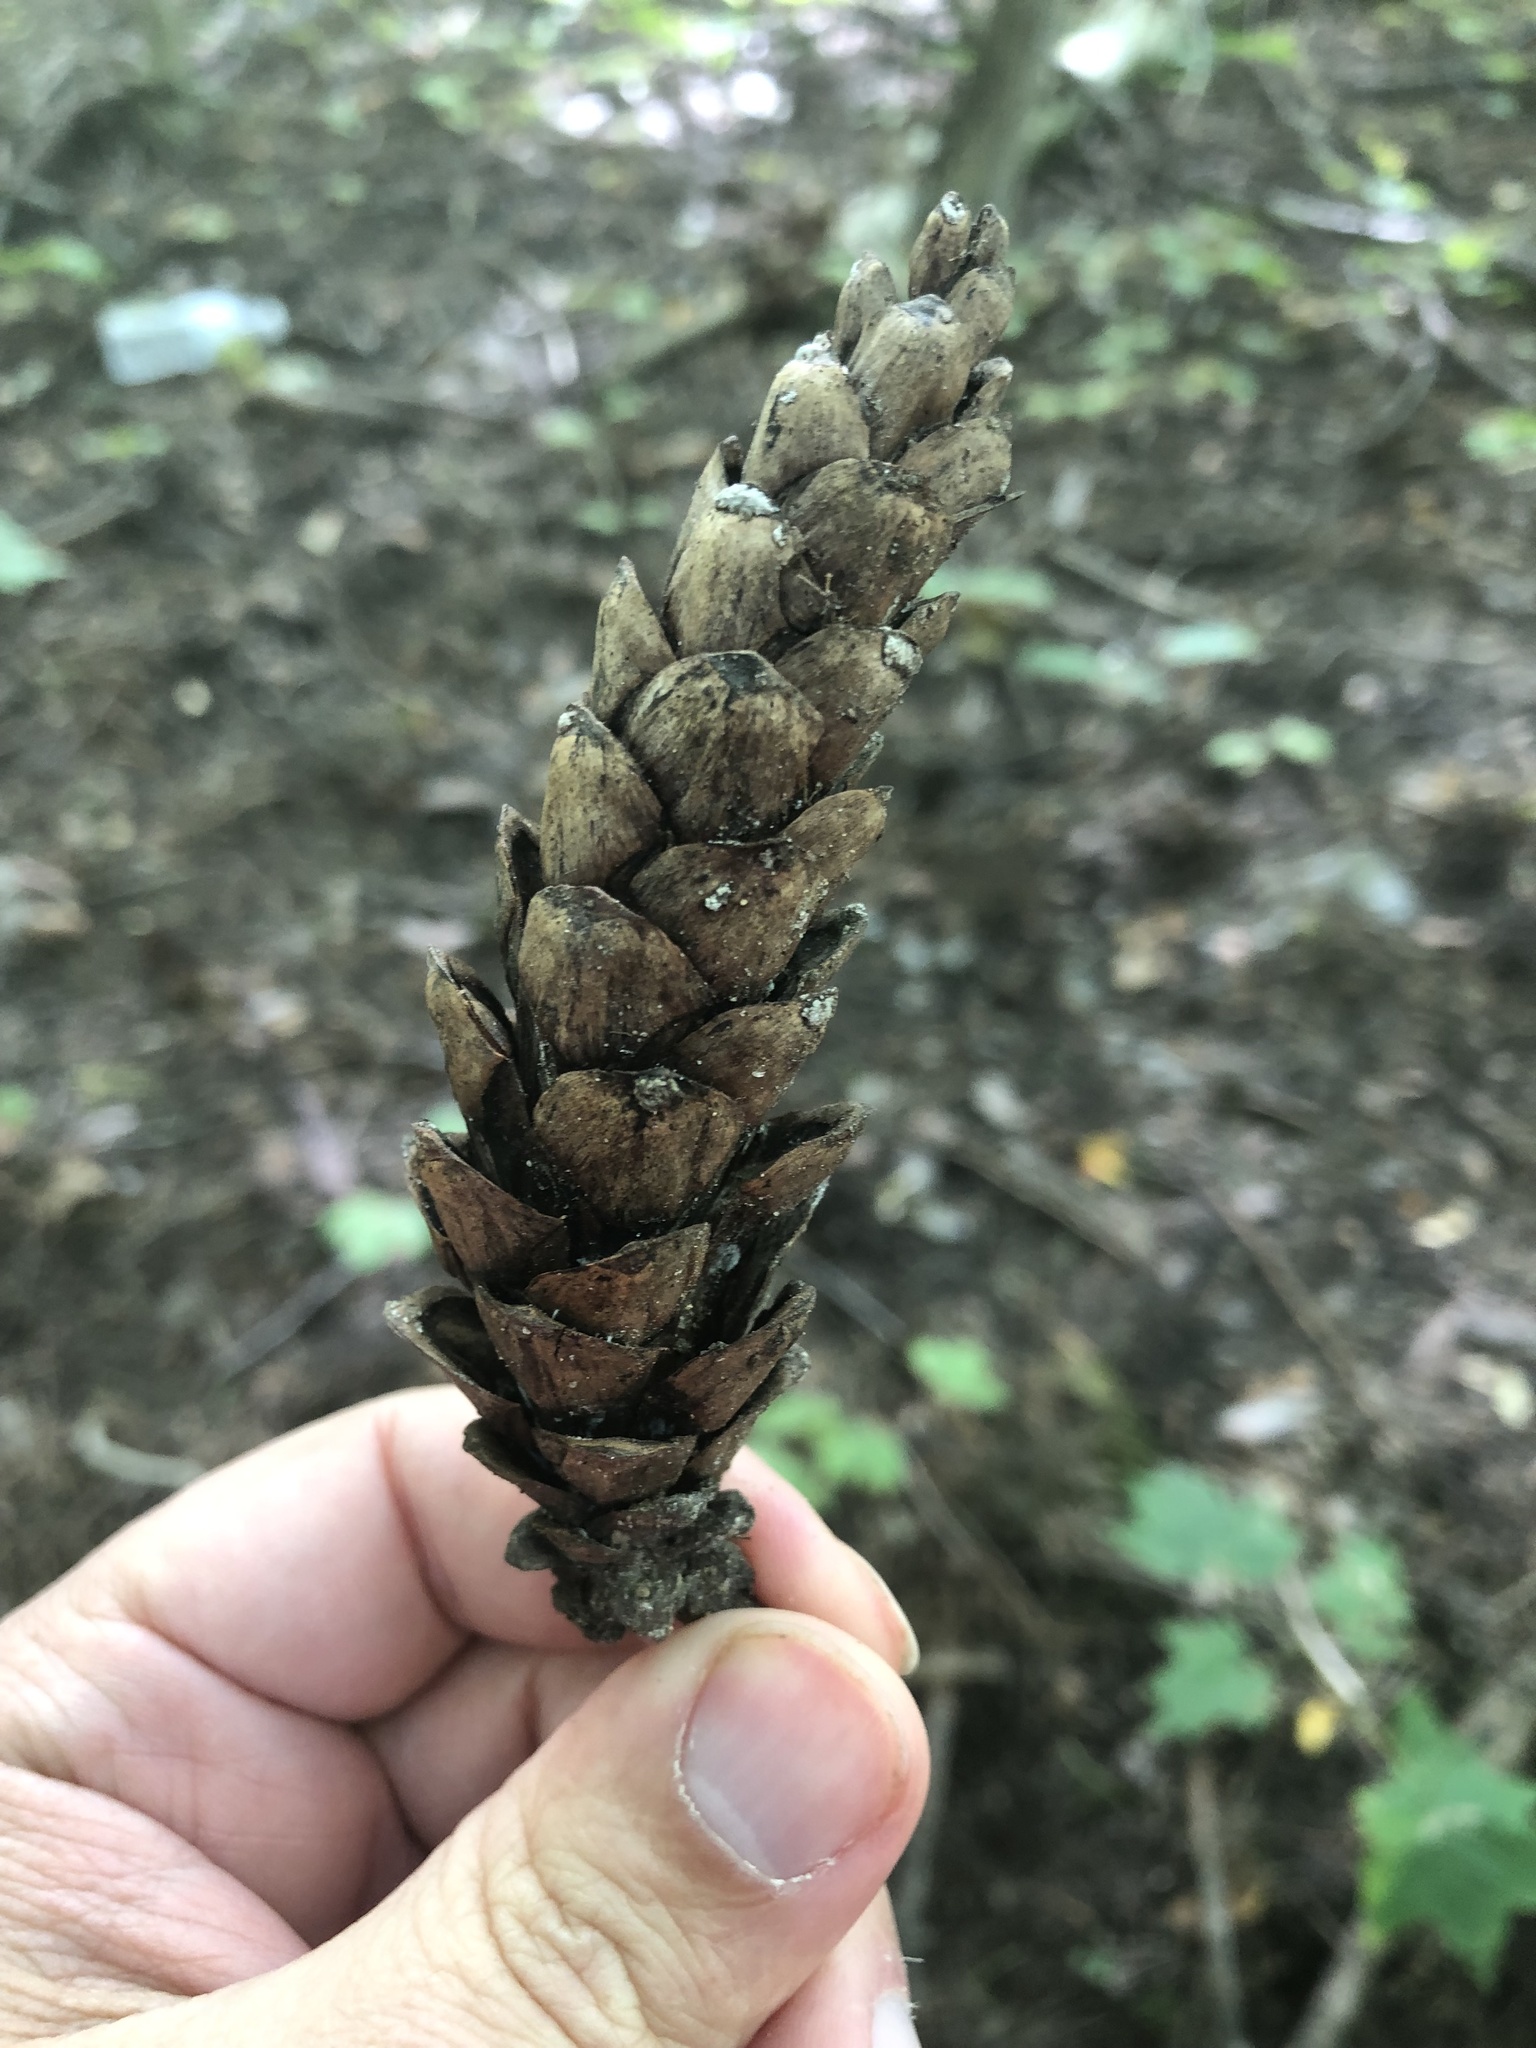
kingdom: Plantae
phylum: Tracheophyta
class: Pinopsida
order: Pinales
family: Pinaceae
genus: Pinus
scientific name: Pinus strobus
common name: Weymouth pine
